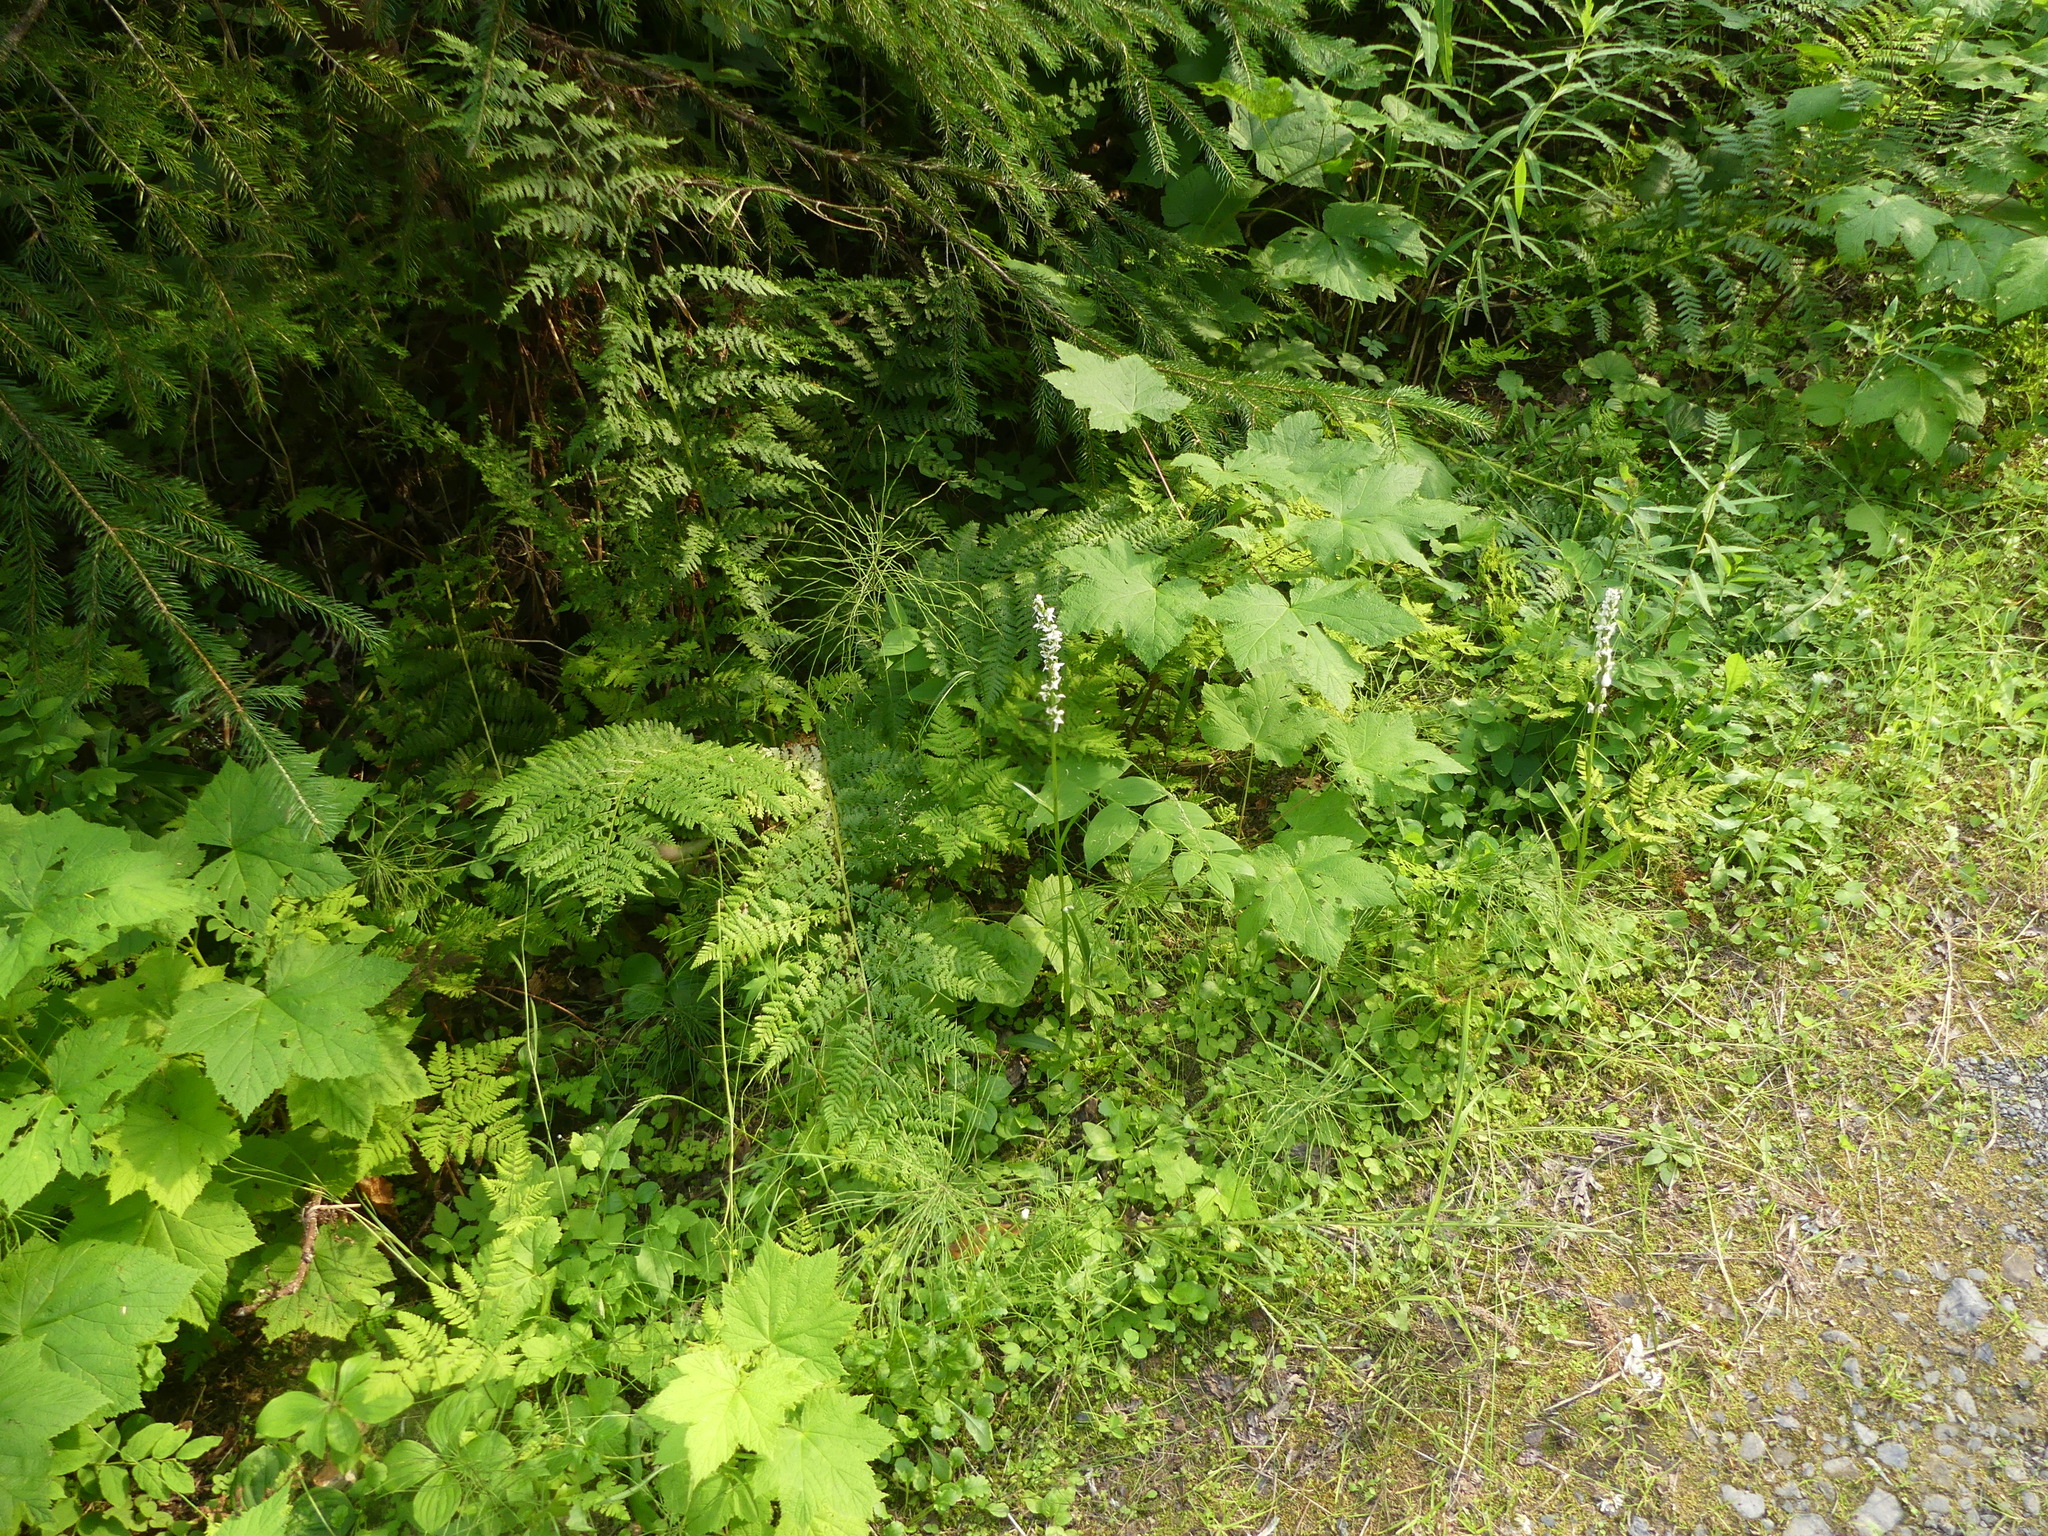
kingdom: Plantae
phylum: Tracheophyta
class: Liliopsida
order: Asparagales
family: Orchidaceae
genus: Platanthera
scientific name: Platanthera dilatata
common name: Bog candles
